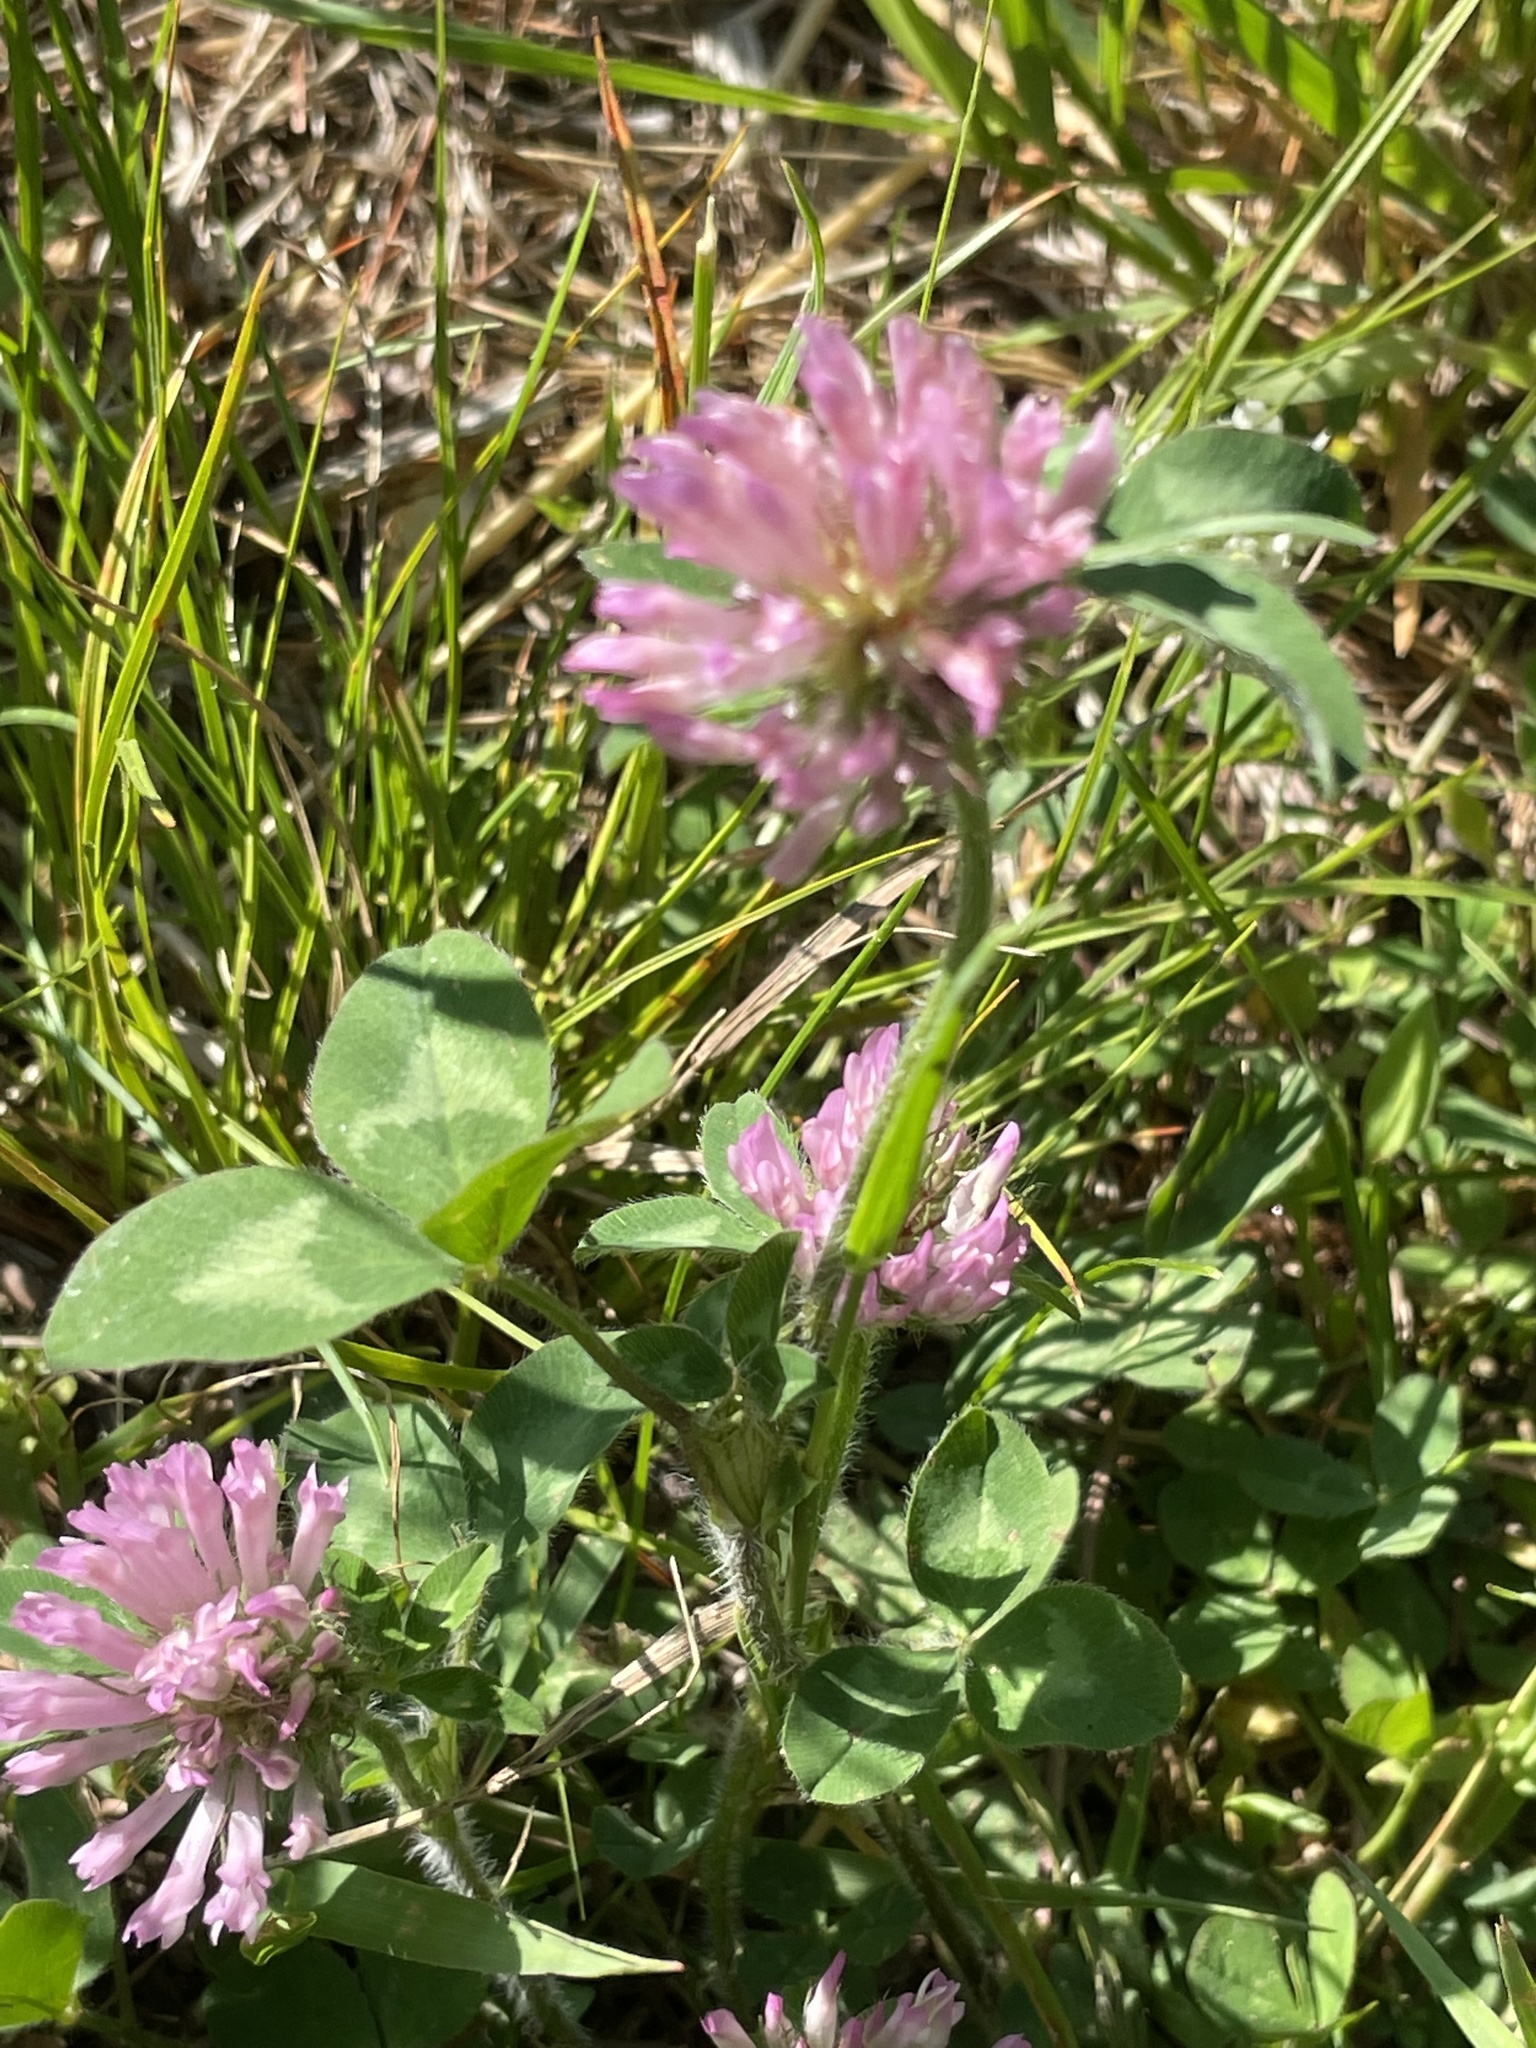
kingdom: Plantae
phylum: Tracheophyta
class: Magnoliopsida
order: Fabales
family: Fabaceae
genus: Trifolium
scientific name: Trifolium pratense
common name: Red clover
